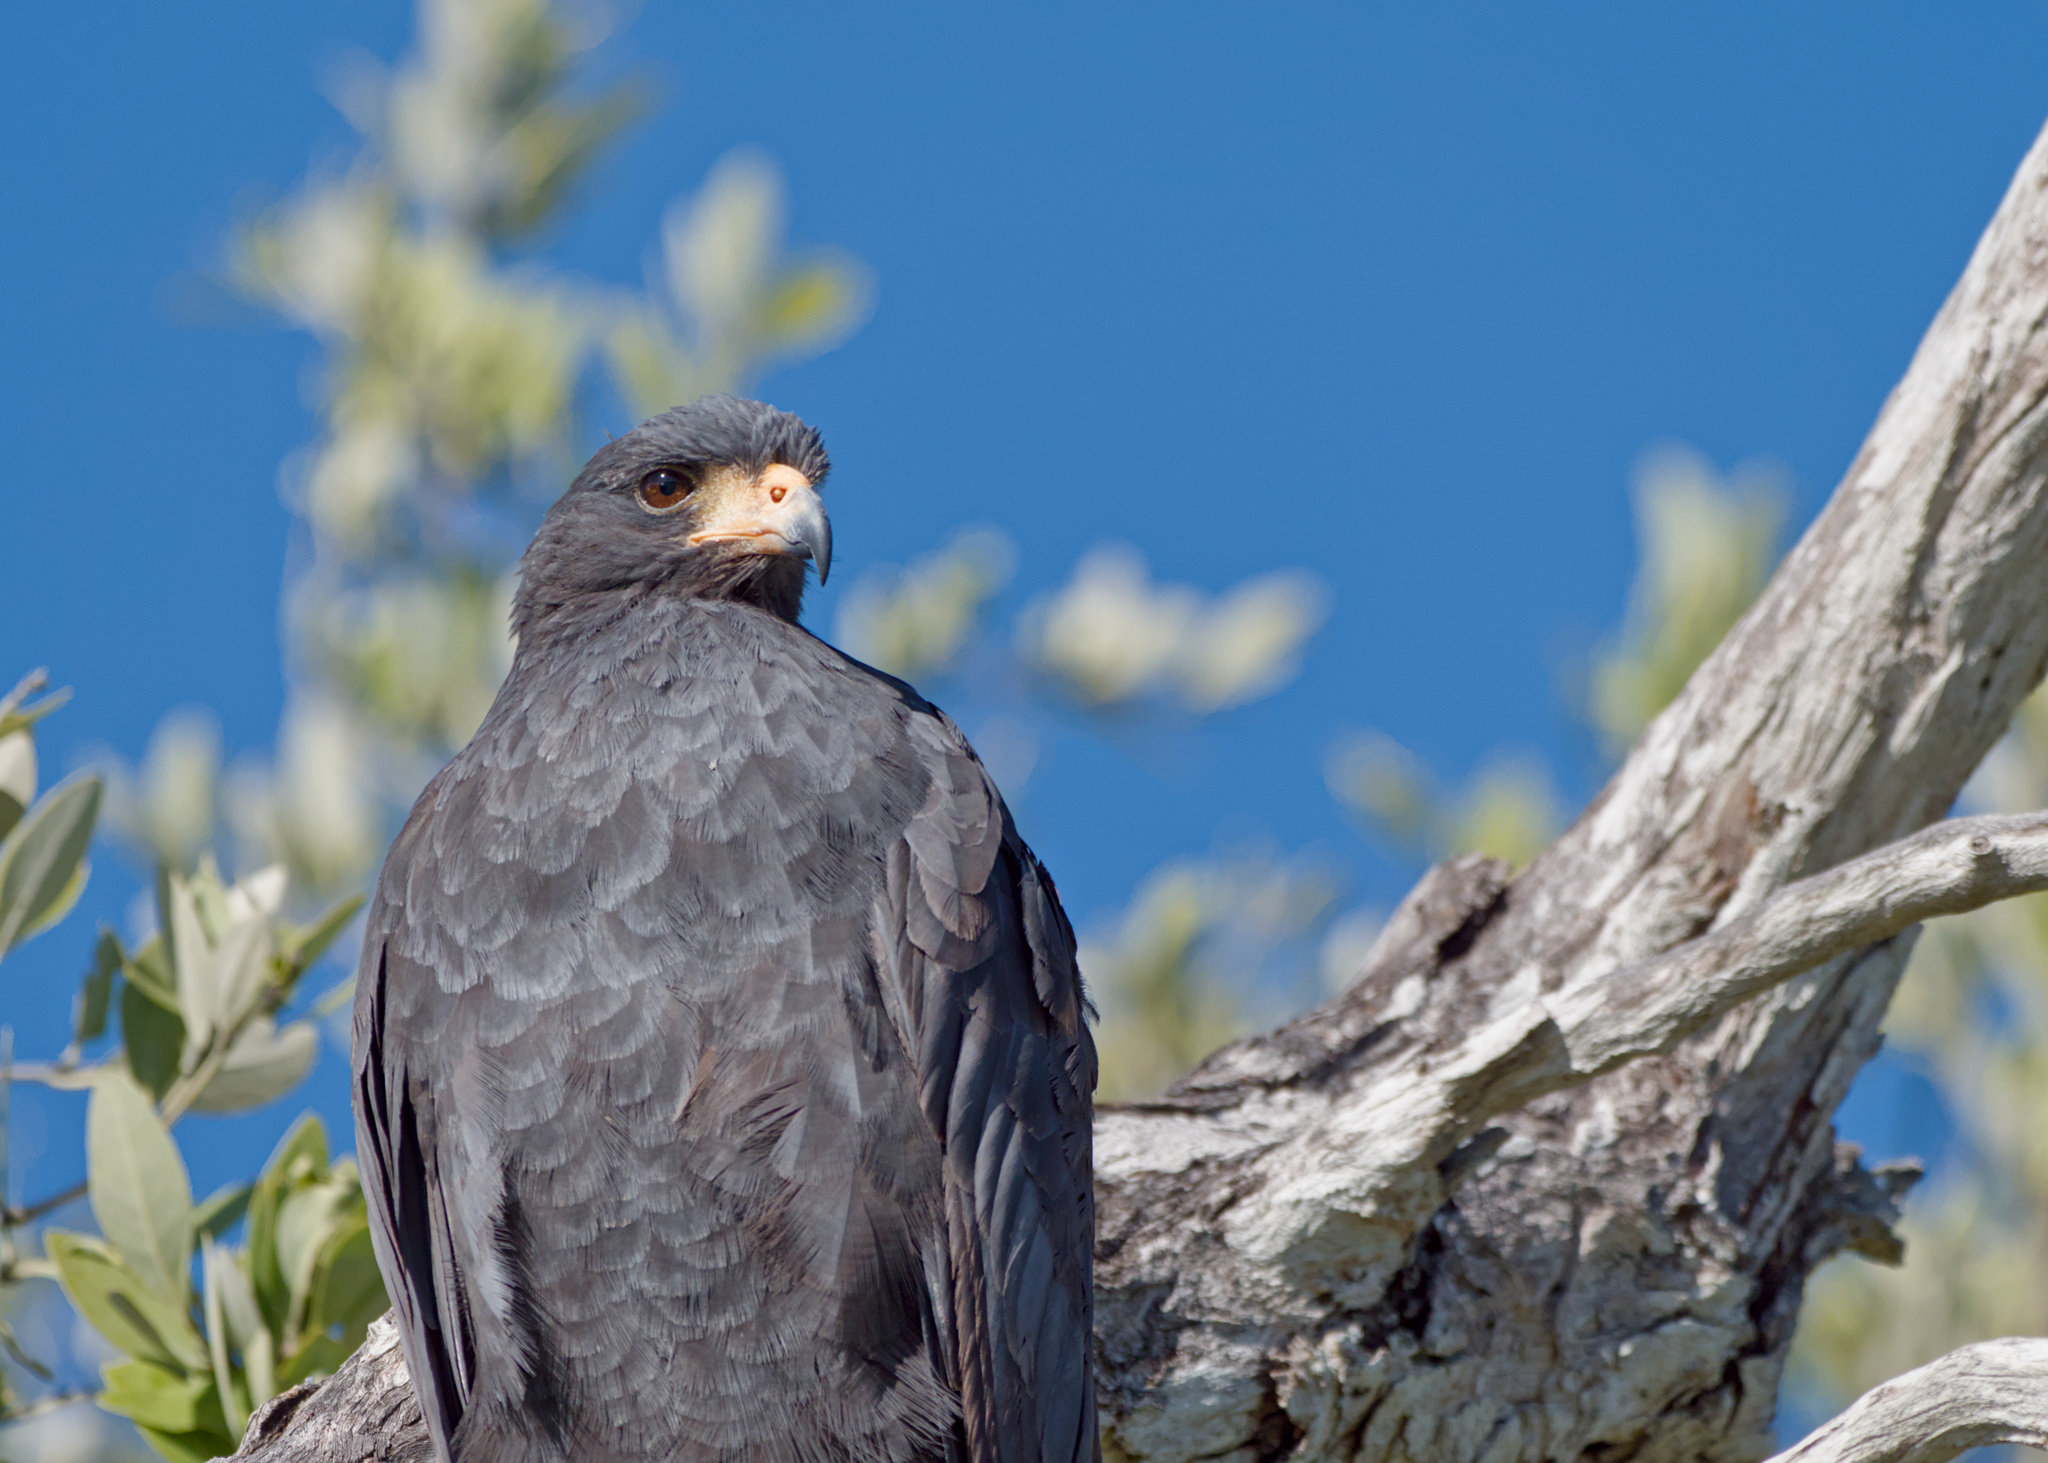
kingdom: Animalia
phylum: Chordata
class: Aves
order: Accipitriformes
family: Accipitridae
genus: Buteogallus
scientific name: Buteogallus anthracinus
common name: Common black hawk
